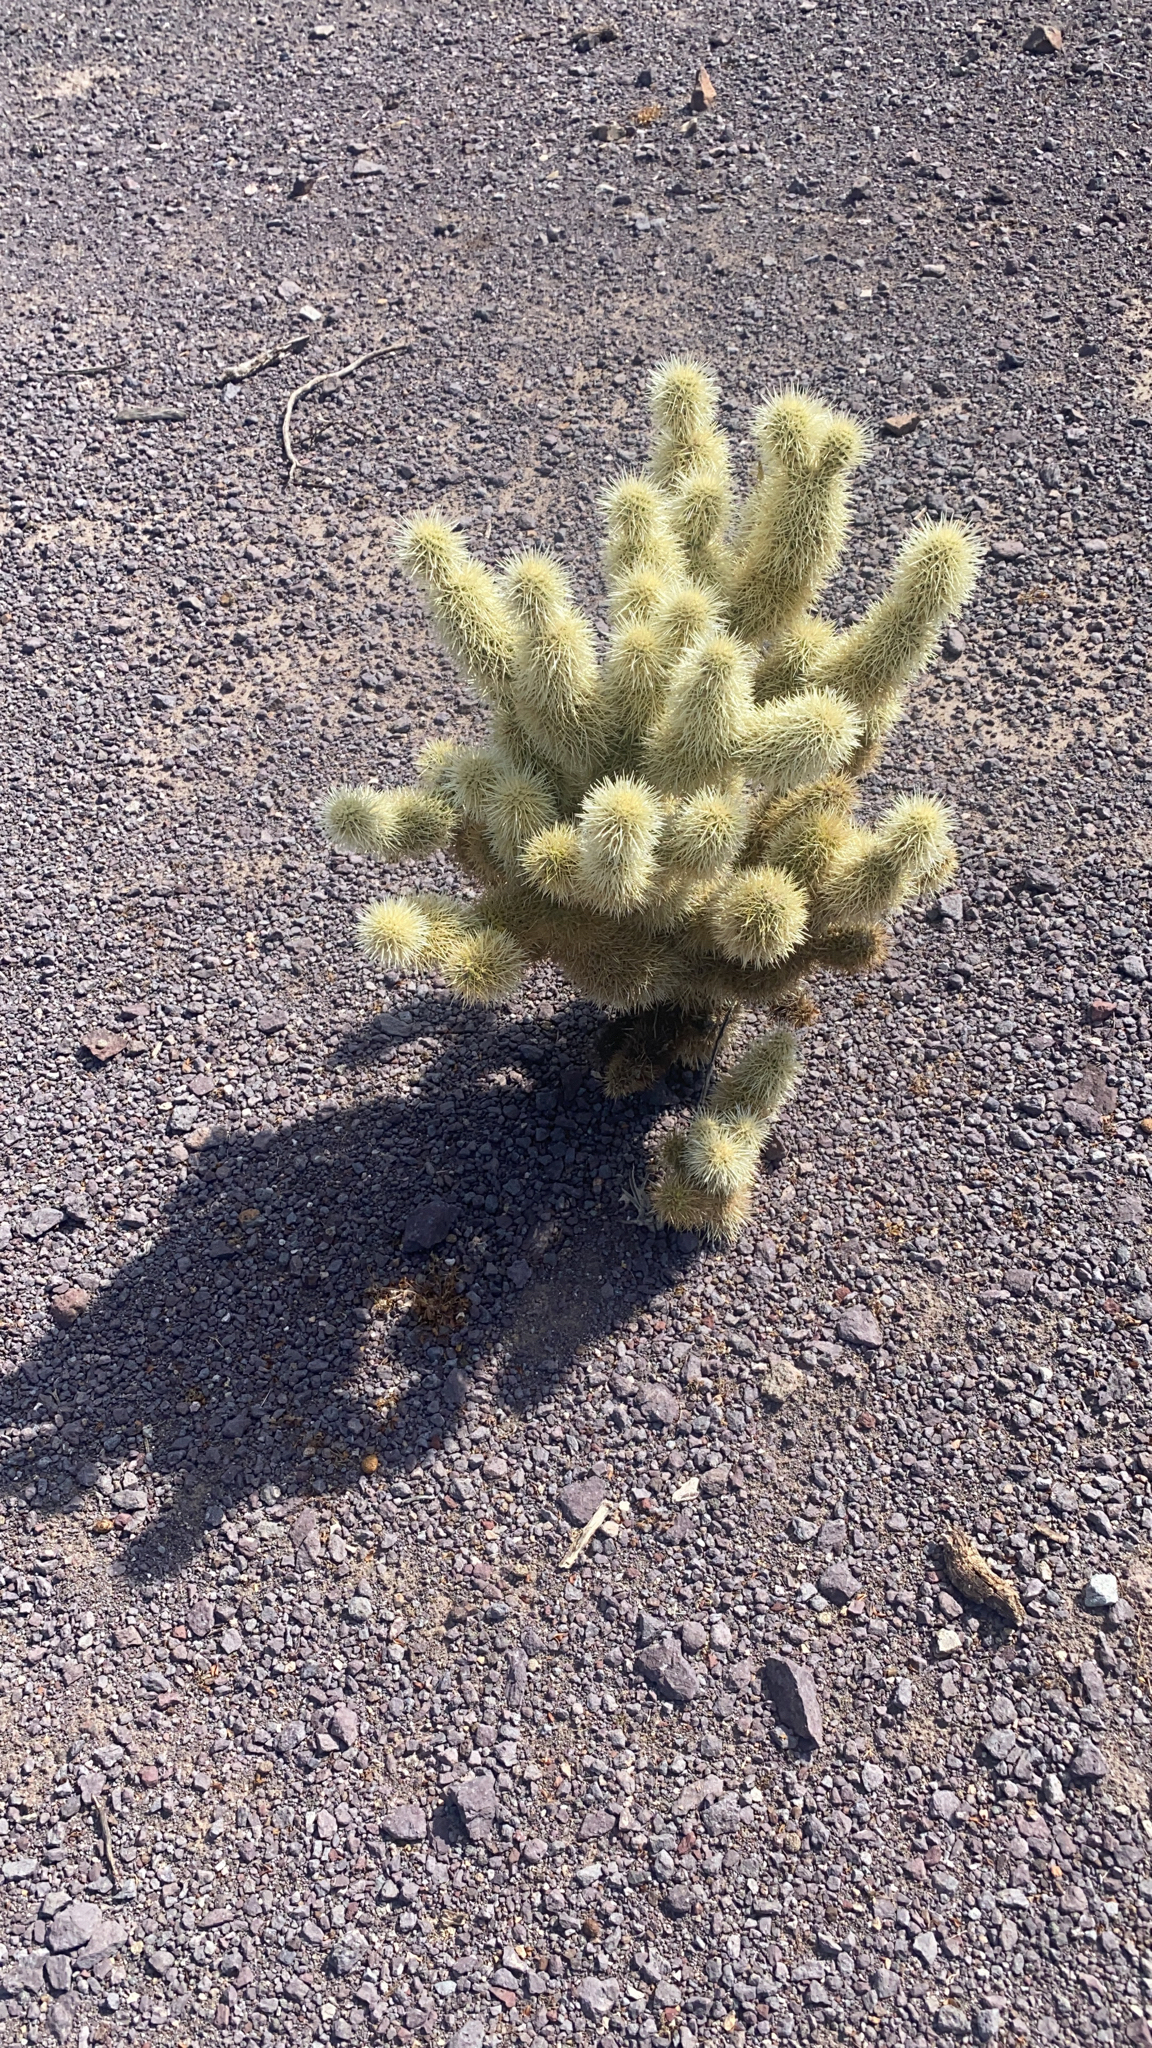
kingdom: Plantae
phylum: Tracheophyta
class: Magnoliopsida
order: Caryophyllales
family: Cactaceae
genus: Cylindropuntia
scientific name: Cylindropuntia fosbergii
